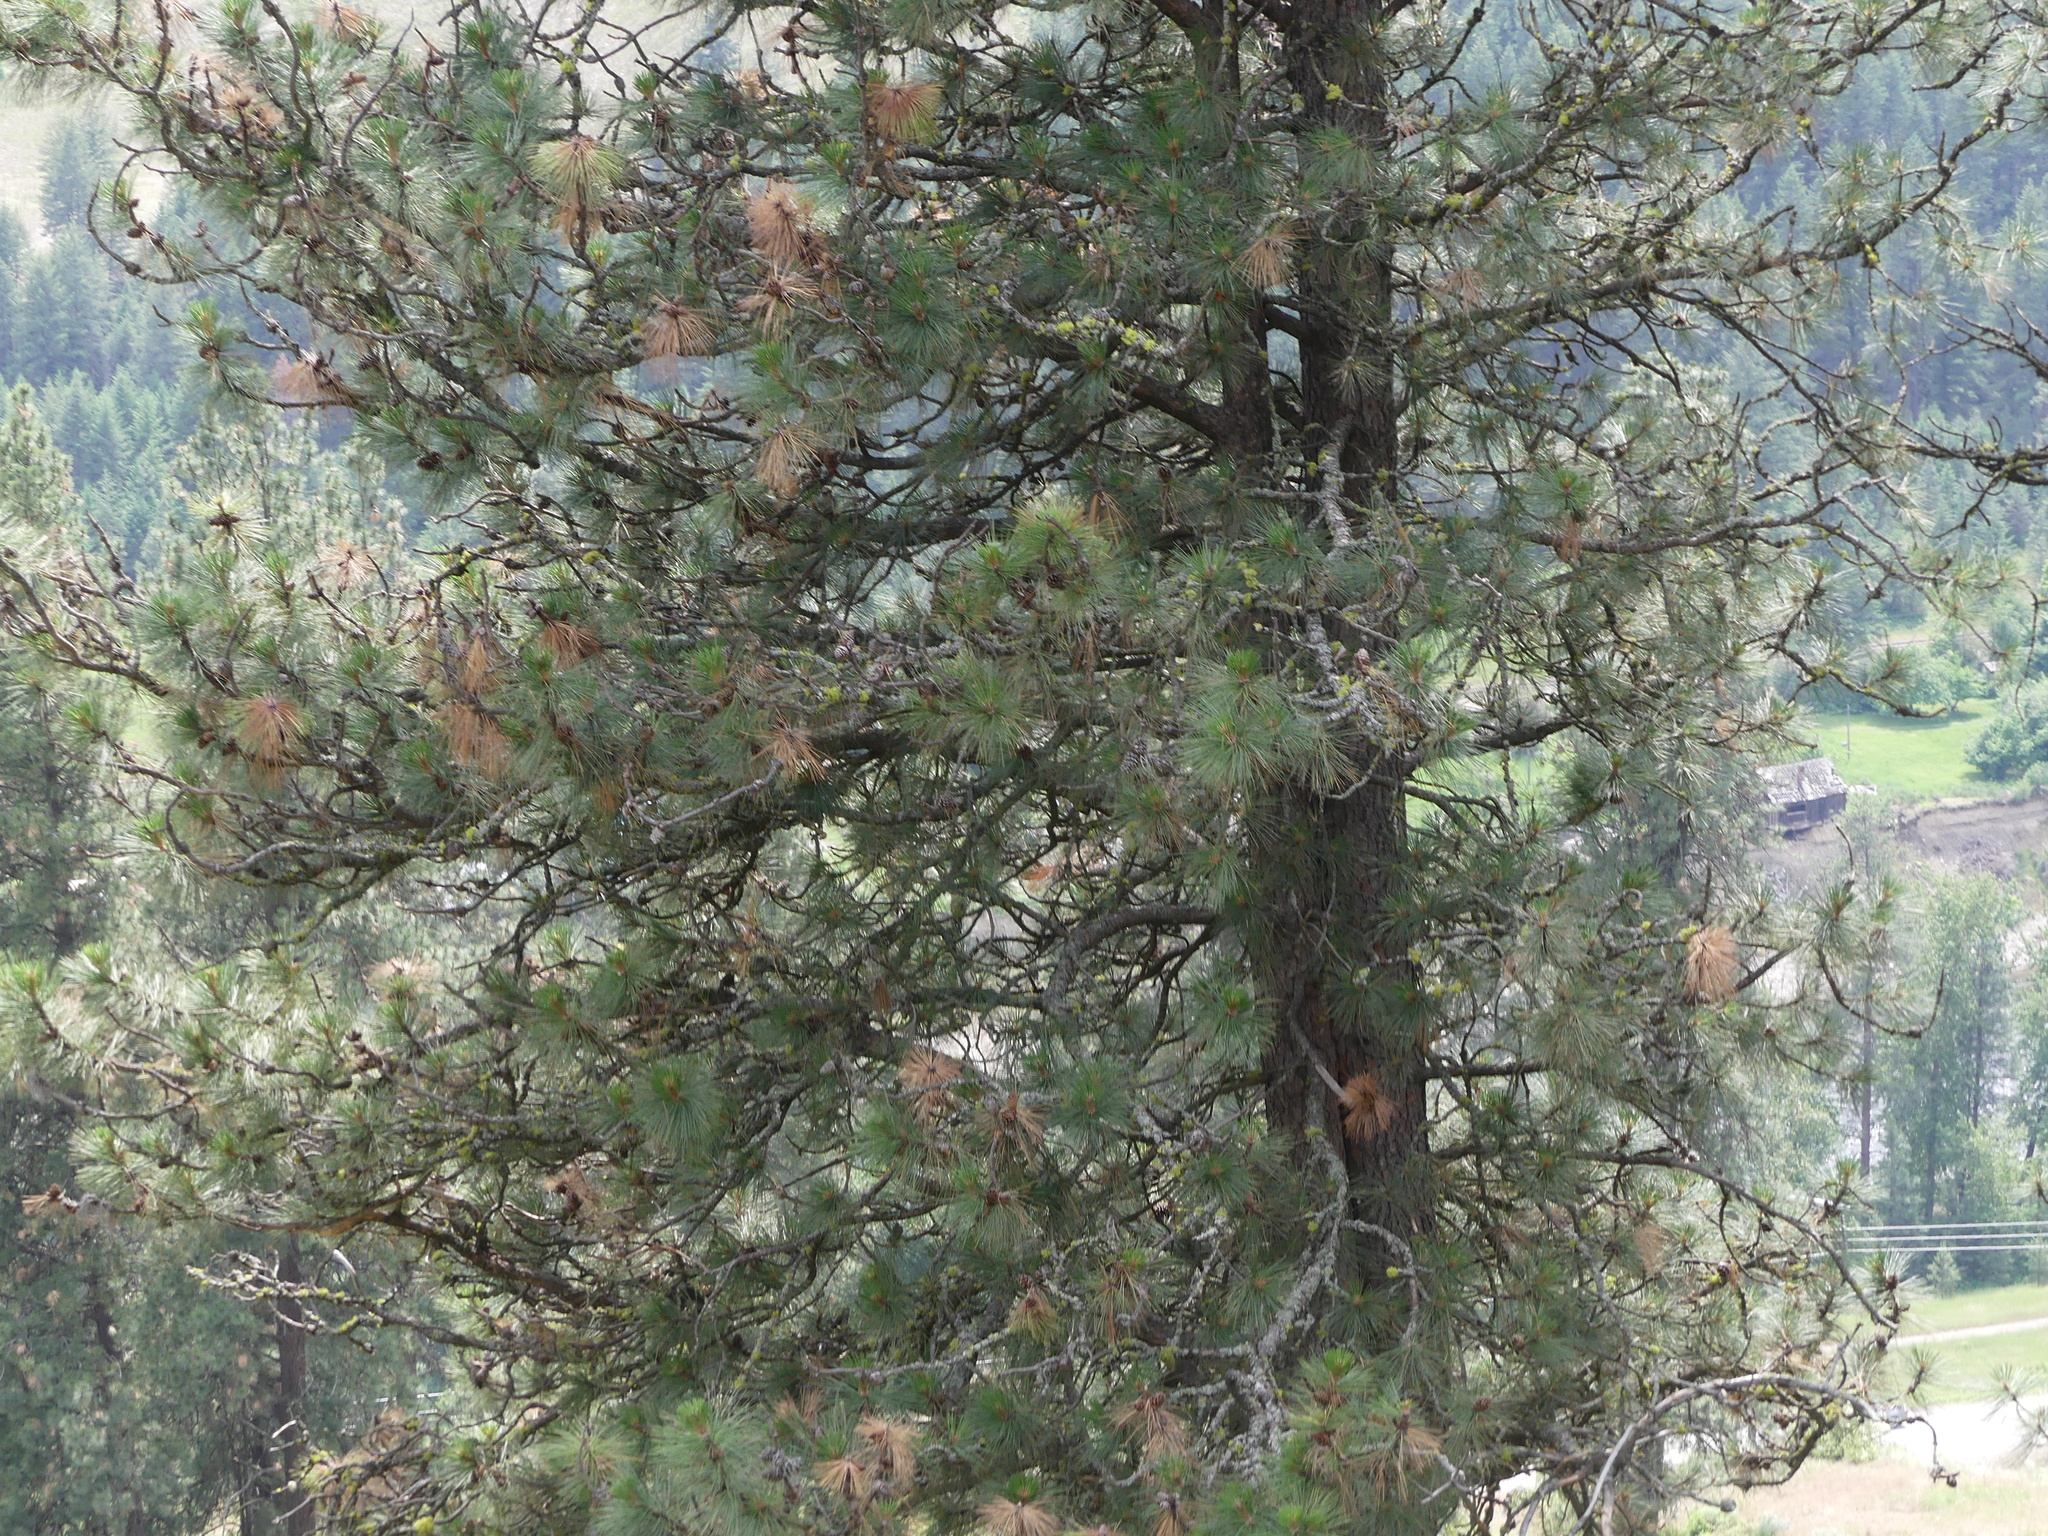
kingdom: Plantae
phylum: Tracheophyta
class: Pinopsida
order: Pinales
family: Pinaceae
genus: Pinus
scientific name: Pinus ponderosa
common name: Western yellow-pine
